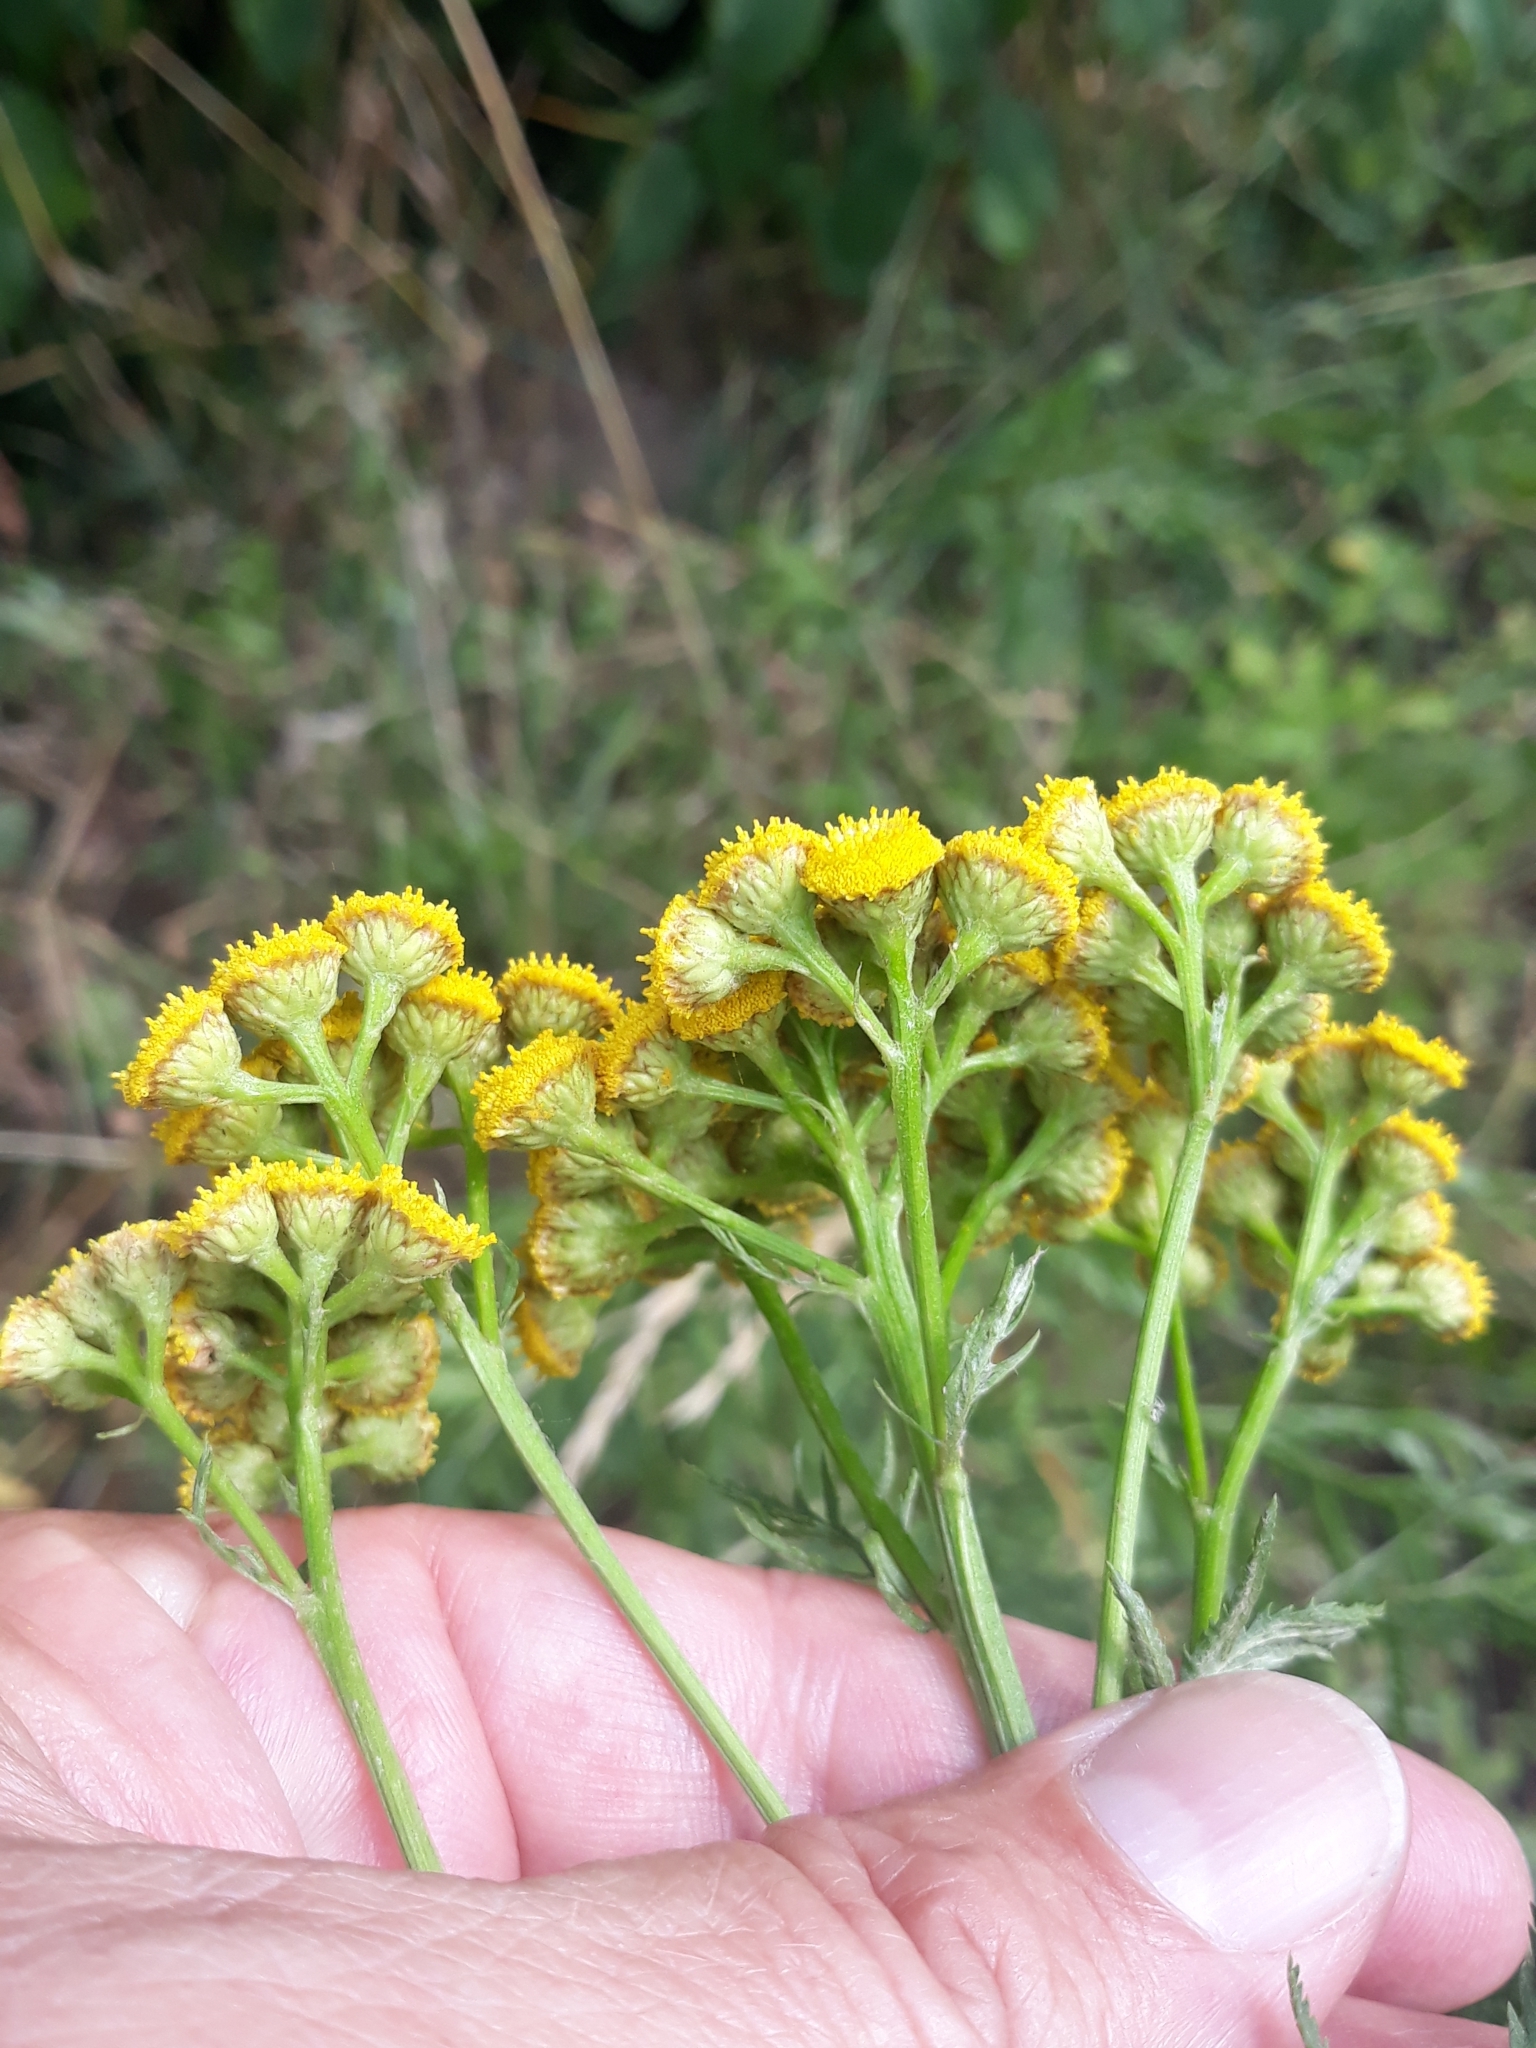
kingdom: Plantae
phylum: Tracheophyta
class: Magnoliopsida
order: Asterales
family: Asteraceae
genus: Tanacetum
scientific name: Tanacetum vulgare
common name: Common tansy
